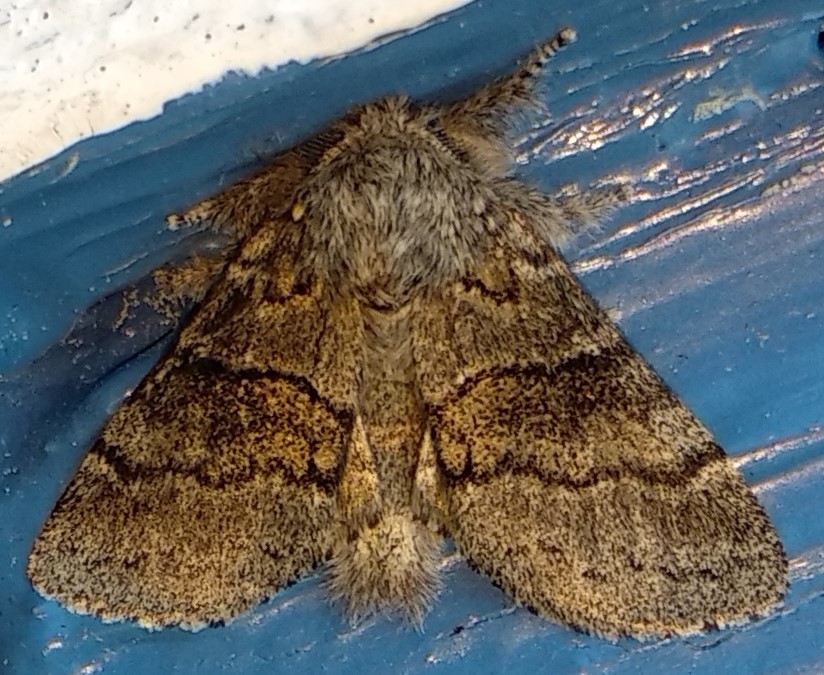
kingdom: Animalia
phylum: Arthropoda
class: Insecta
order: Lepidoptera
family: Notodontidae
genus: Gluphisia
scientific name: Gluphisia septentrionis
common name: Common gluphisia
